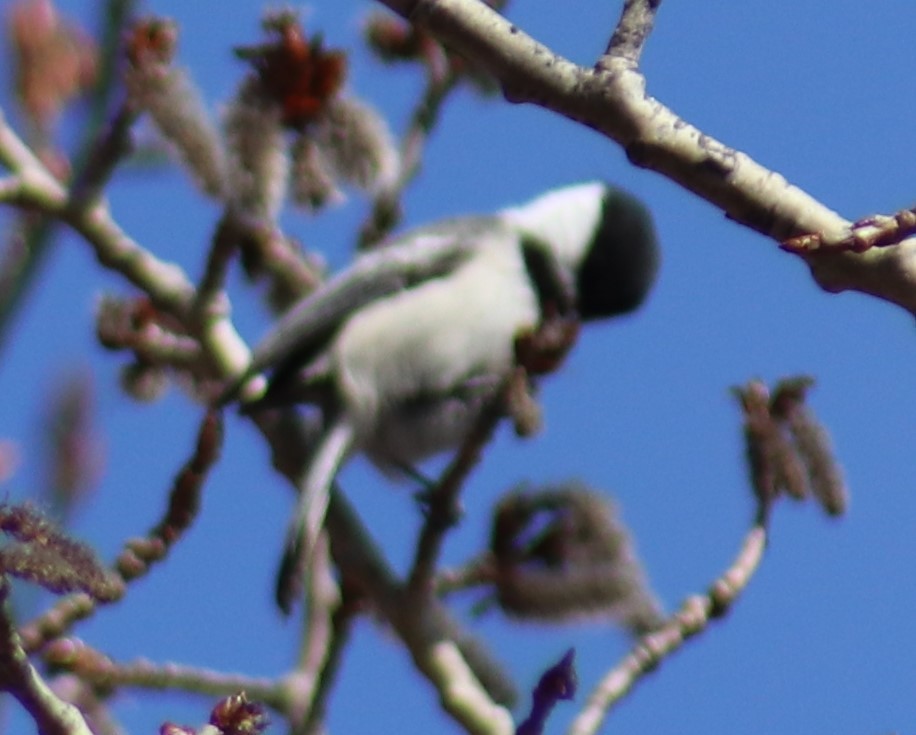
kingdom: Animalia
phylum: Chordata
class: Aves
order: Passeriformes
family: Paridae
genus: Poecile
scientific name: Poecile atricapillus
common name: Black-capped chickadee
